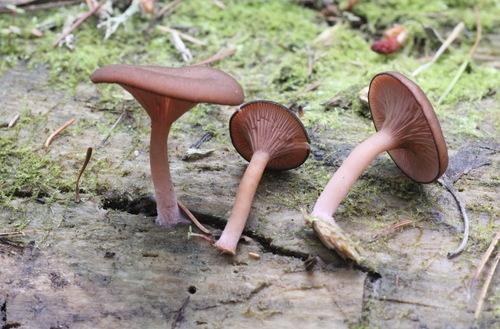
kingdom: Fungi
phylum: Basidiomycota
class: Agaricomycetes
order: Agaricales
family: Hygrophoraceae
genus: Arrhenia
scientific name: Arrhenia discorosea
